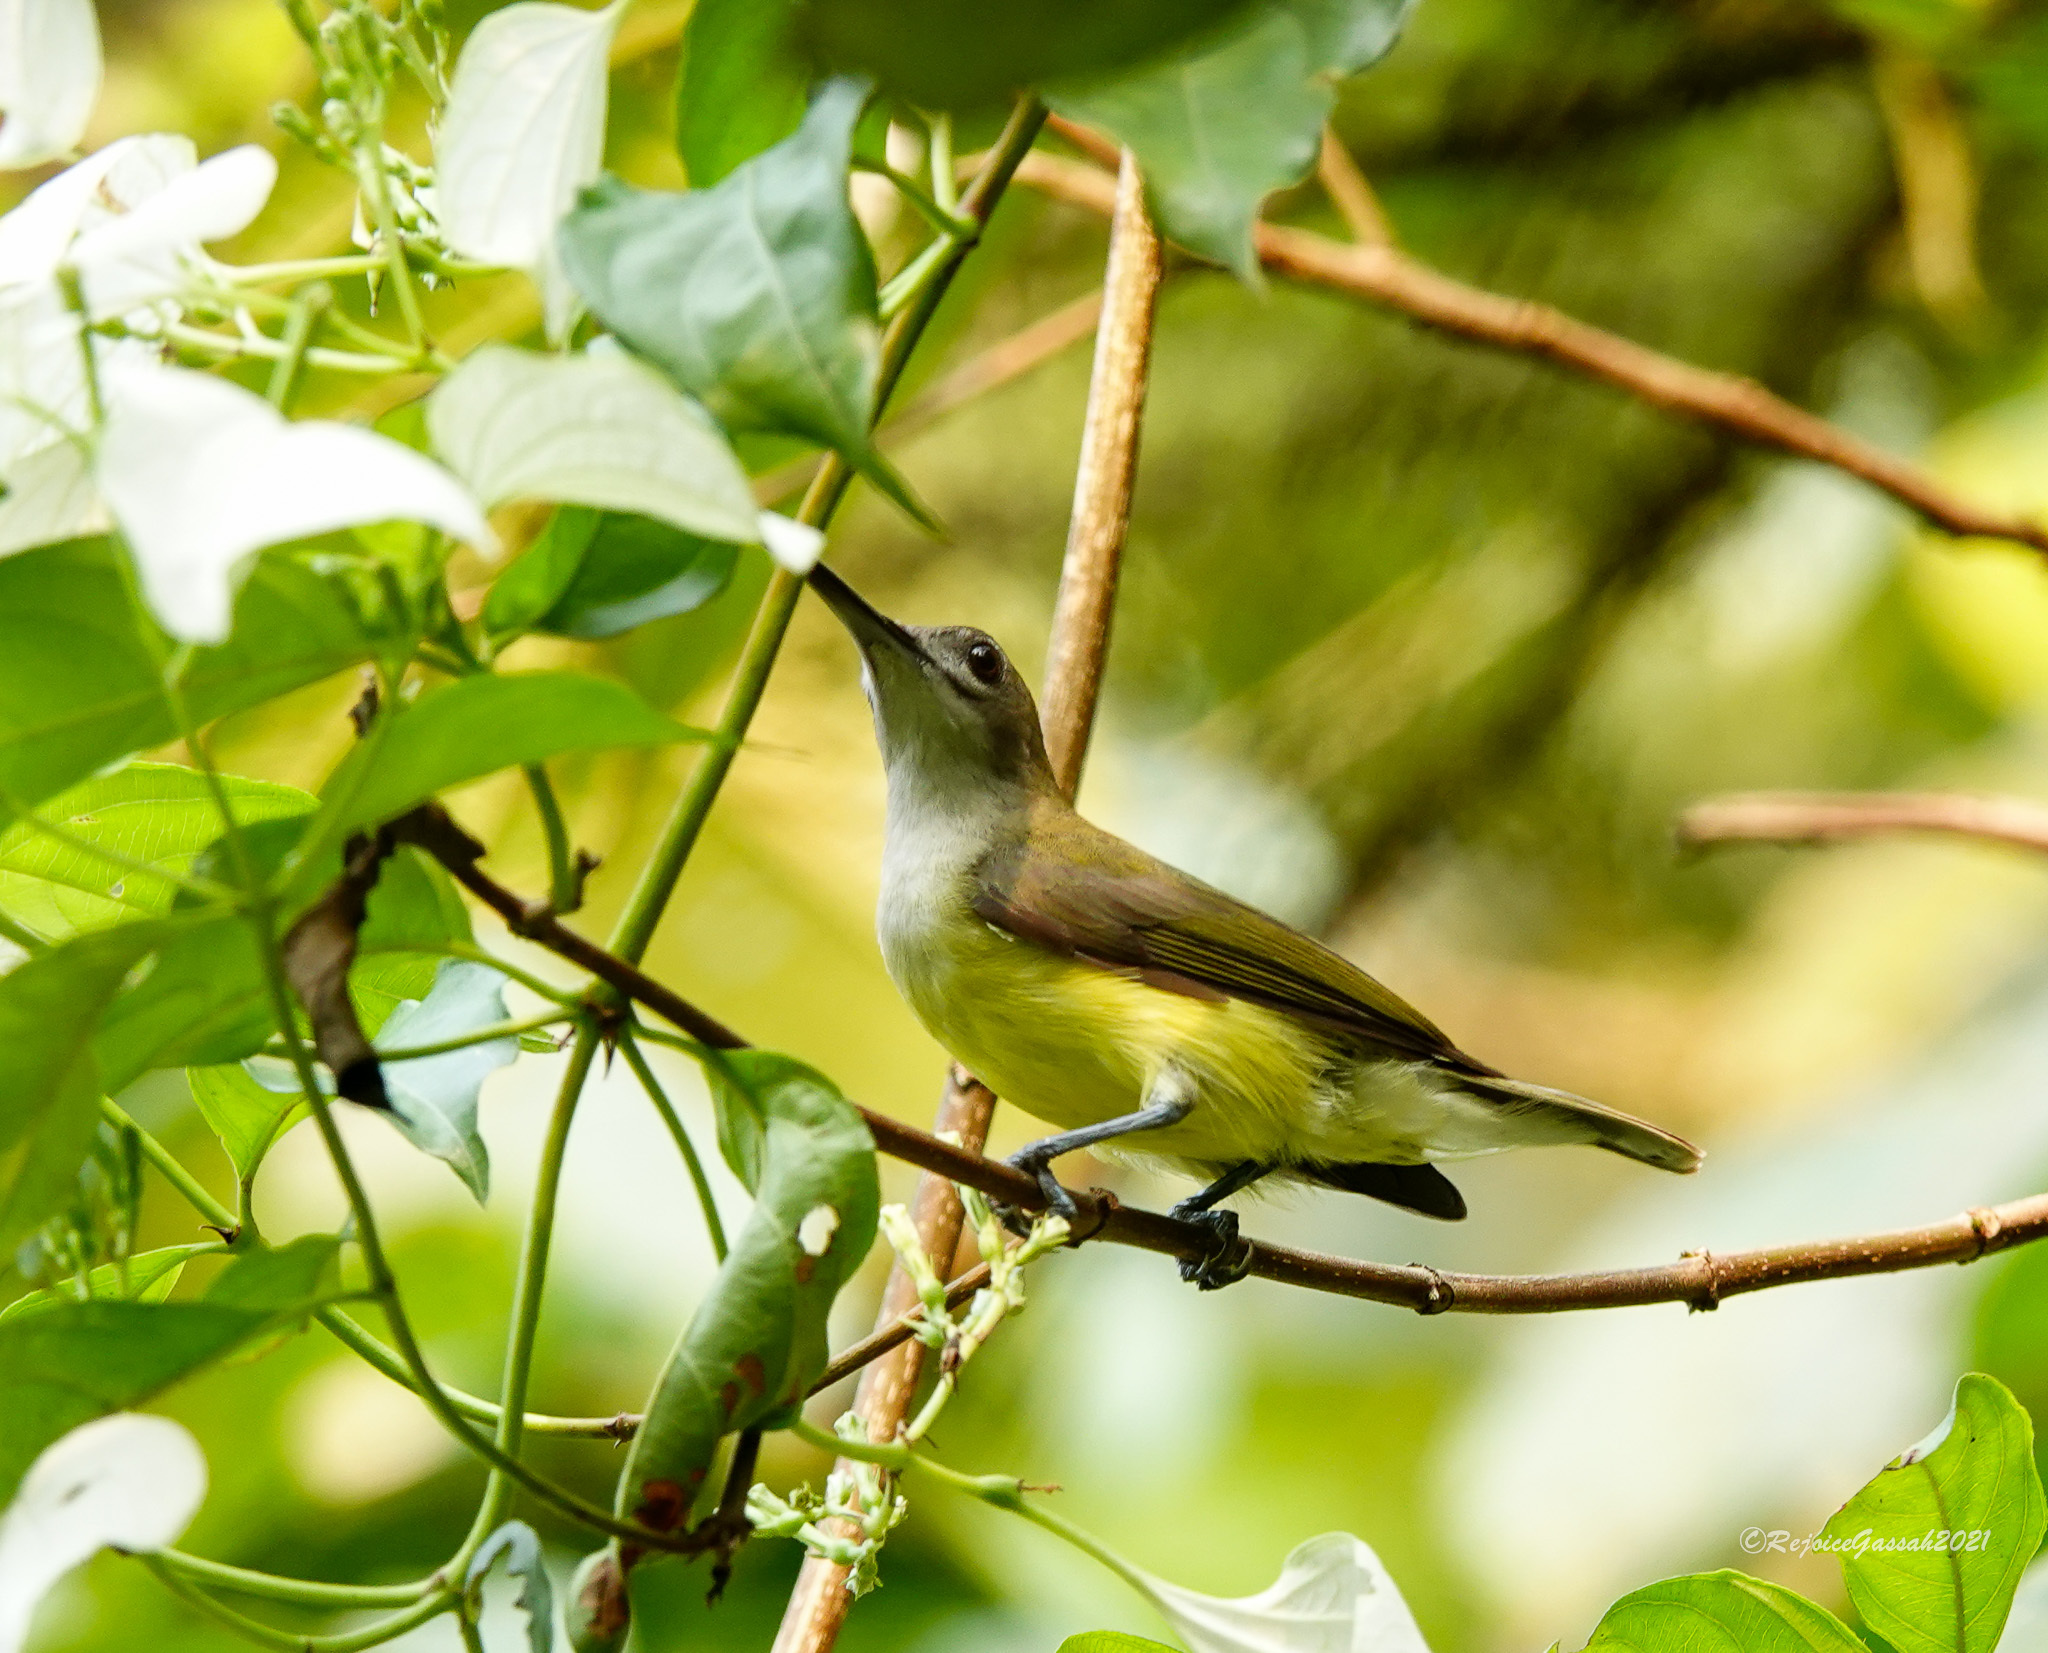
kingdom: Animalia
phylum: Chordata
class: Aves
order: Passeriformes
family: Nectariniidae
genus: Arachnothera
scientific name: Arachnothera longirostra
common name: Little spiderhunter
